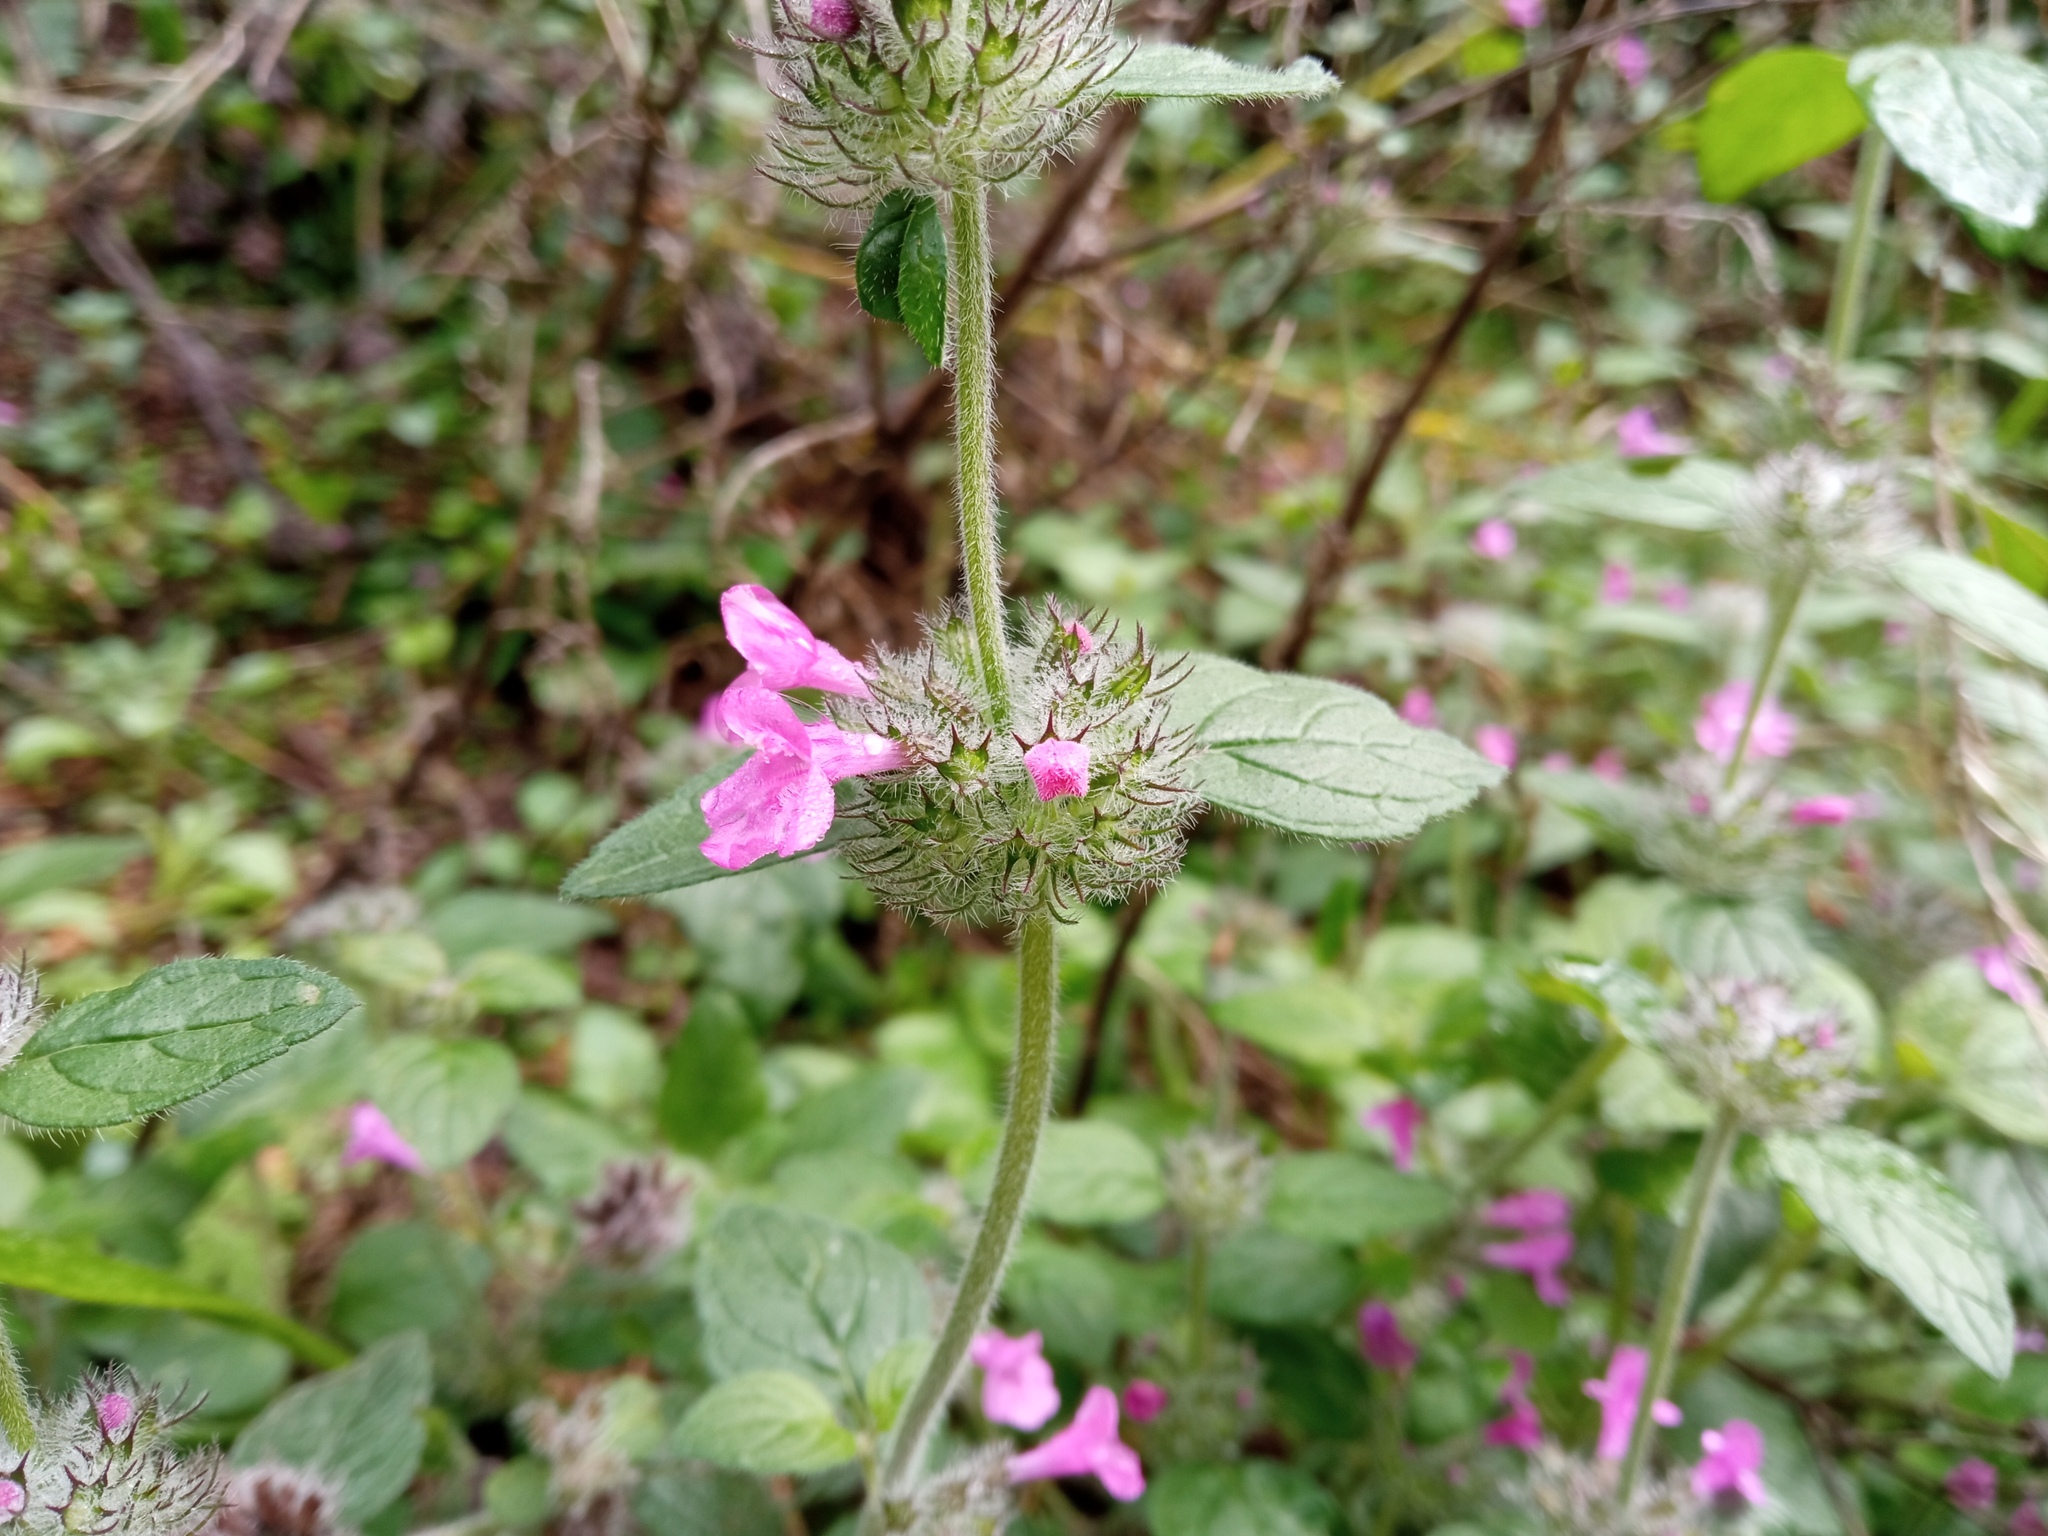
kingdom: Plantae
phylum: Tracheophyta
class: Magnoliopsida
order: Lamiales
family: Lamiaceae
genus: Clinopodium
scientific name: Clinopodium vulgare
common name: Wild basil
